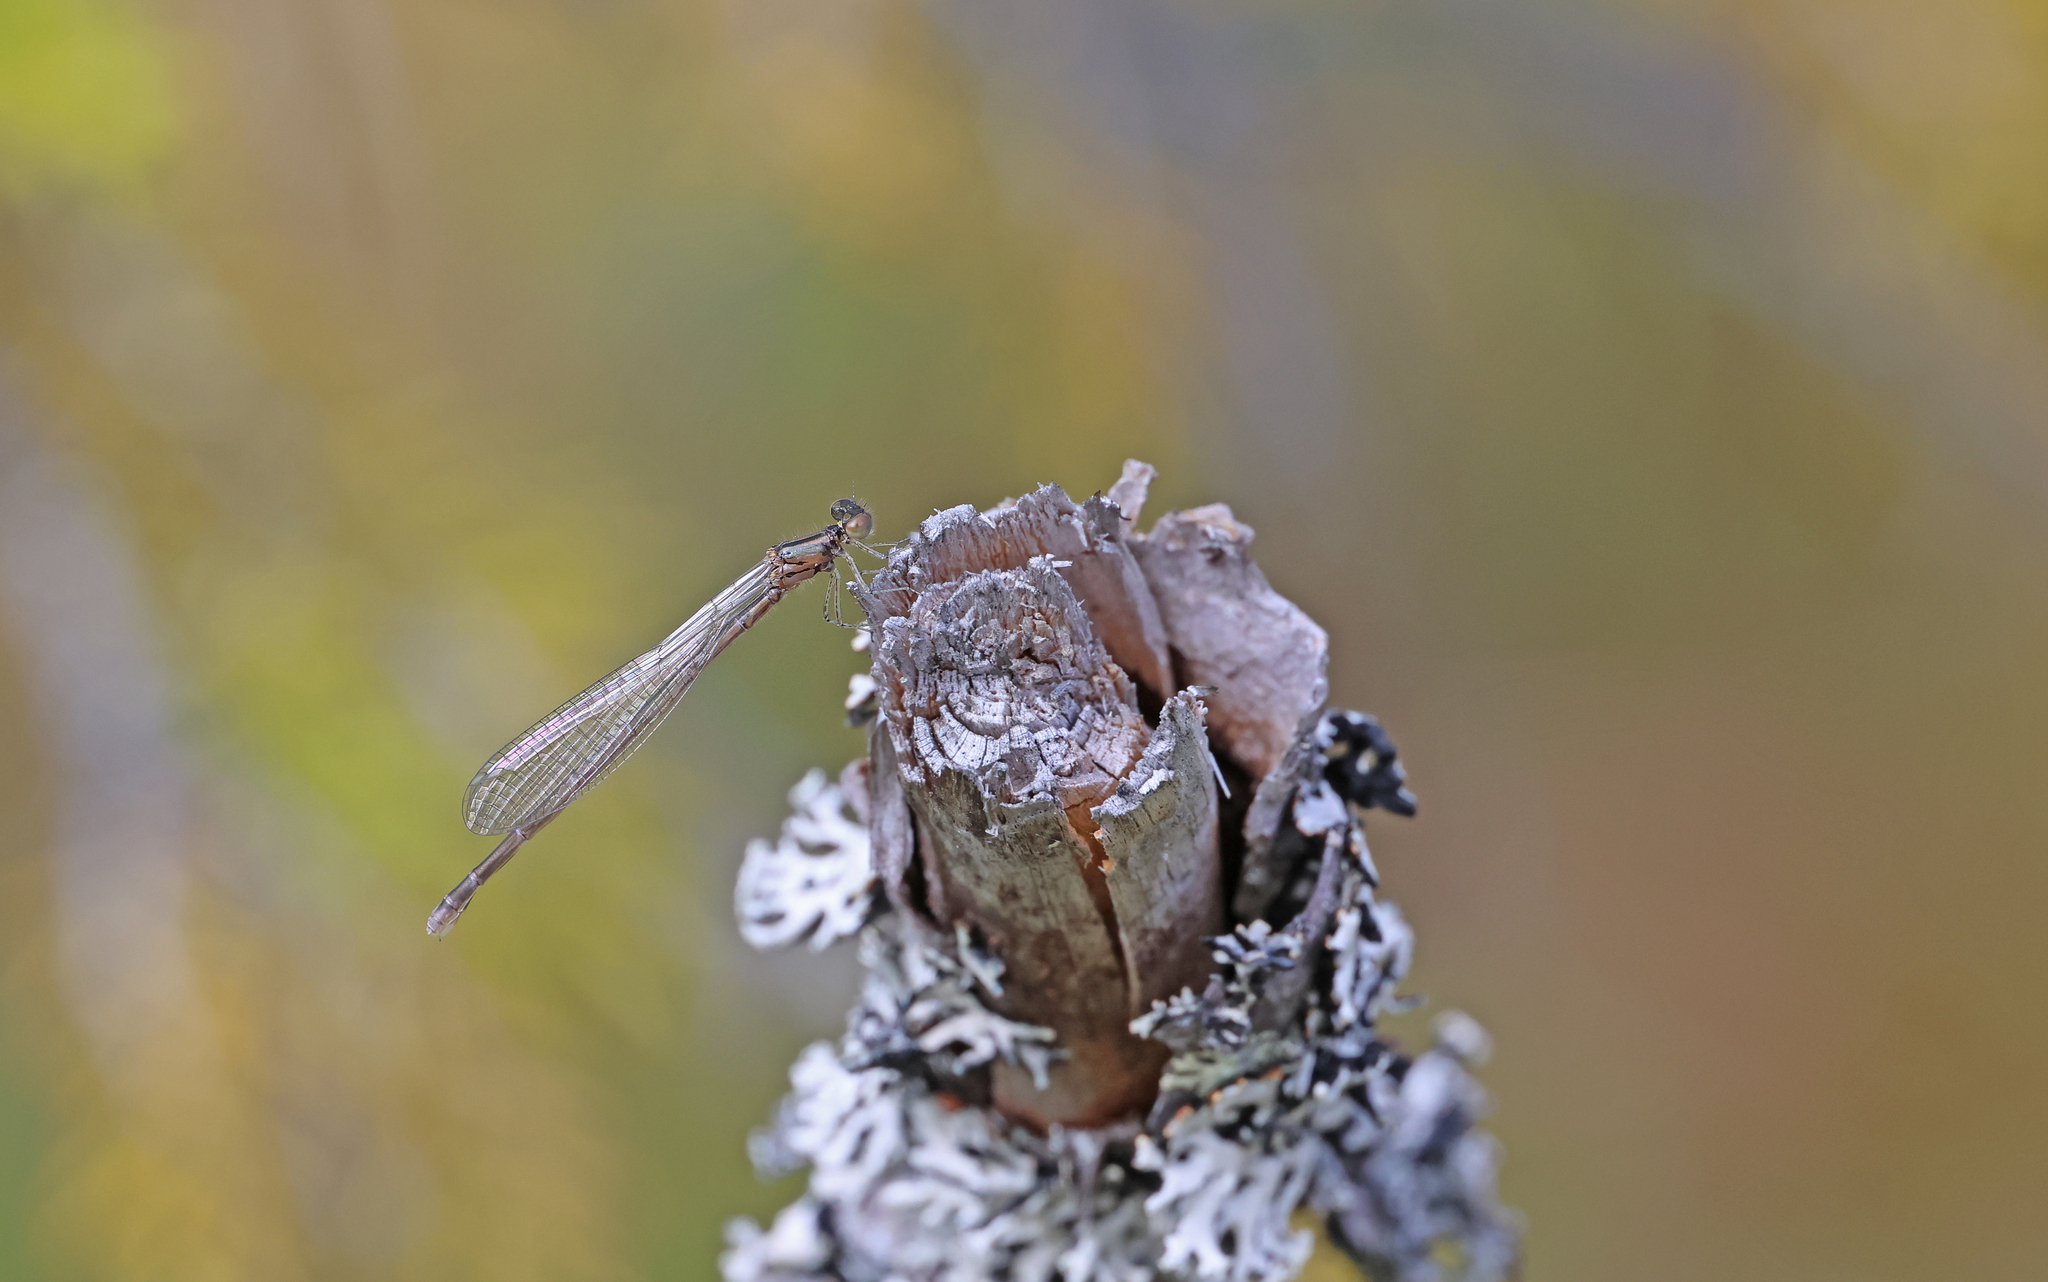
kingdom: Animalia
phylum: Arthropoda
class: Insecta
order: Odonata
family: Coenagrionidae
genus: Coenagrion
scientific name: Coenagrion johanssoni
